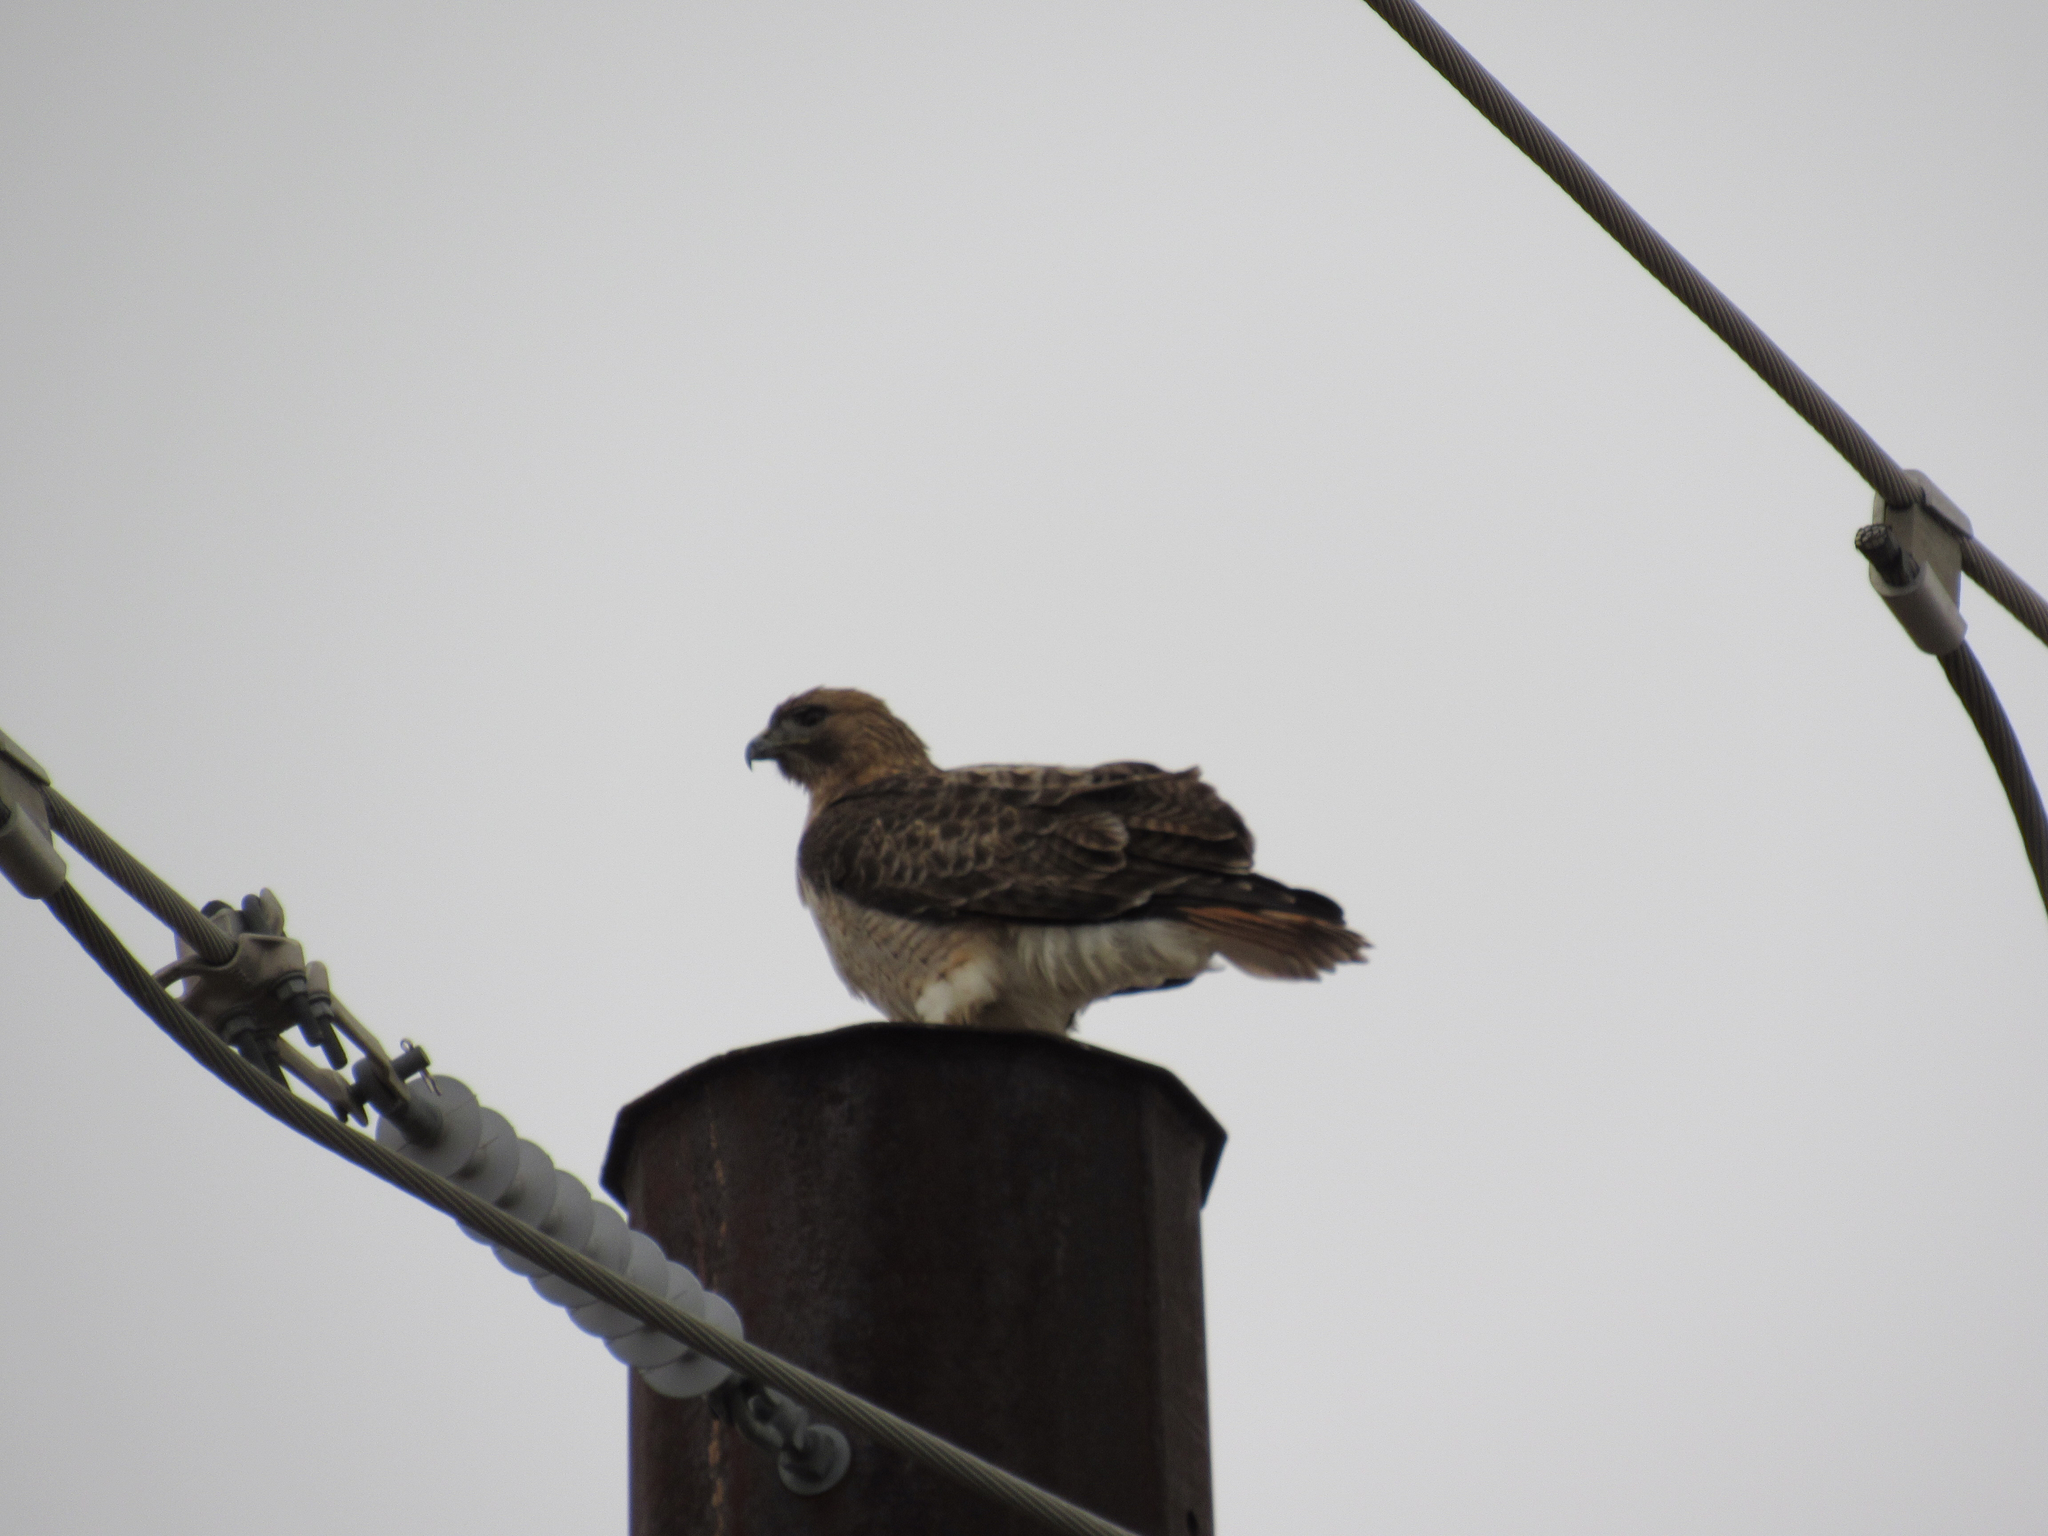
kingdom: Animalia
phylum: Chordata
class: Aves
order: Accipitriformes
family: Accipitridae
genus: Buteo
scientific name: Buteo jamaicensis
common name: Red-tailed hawk
